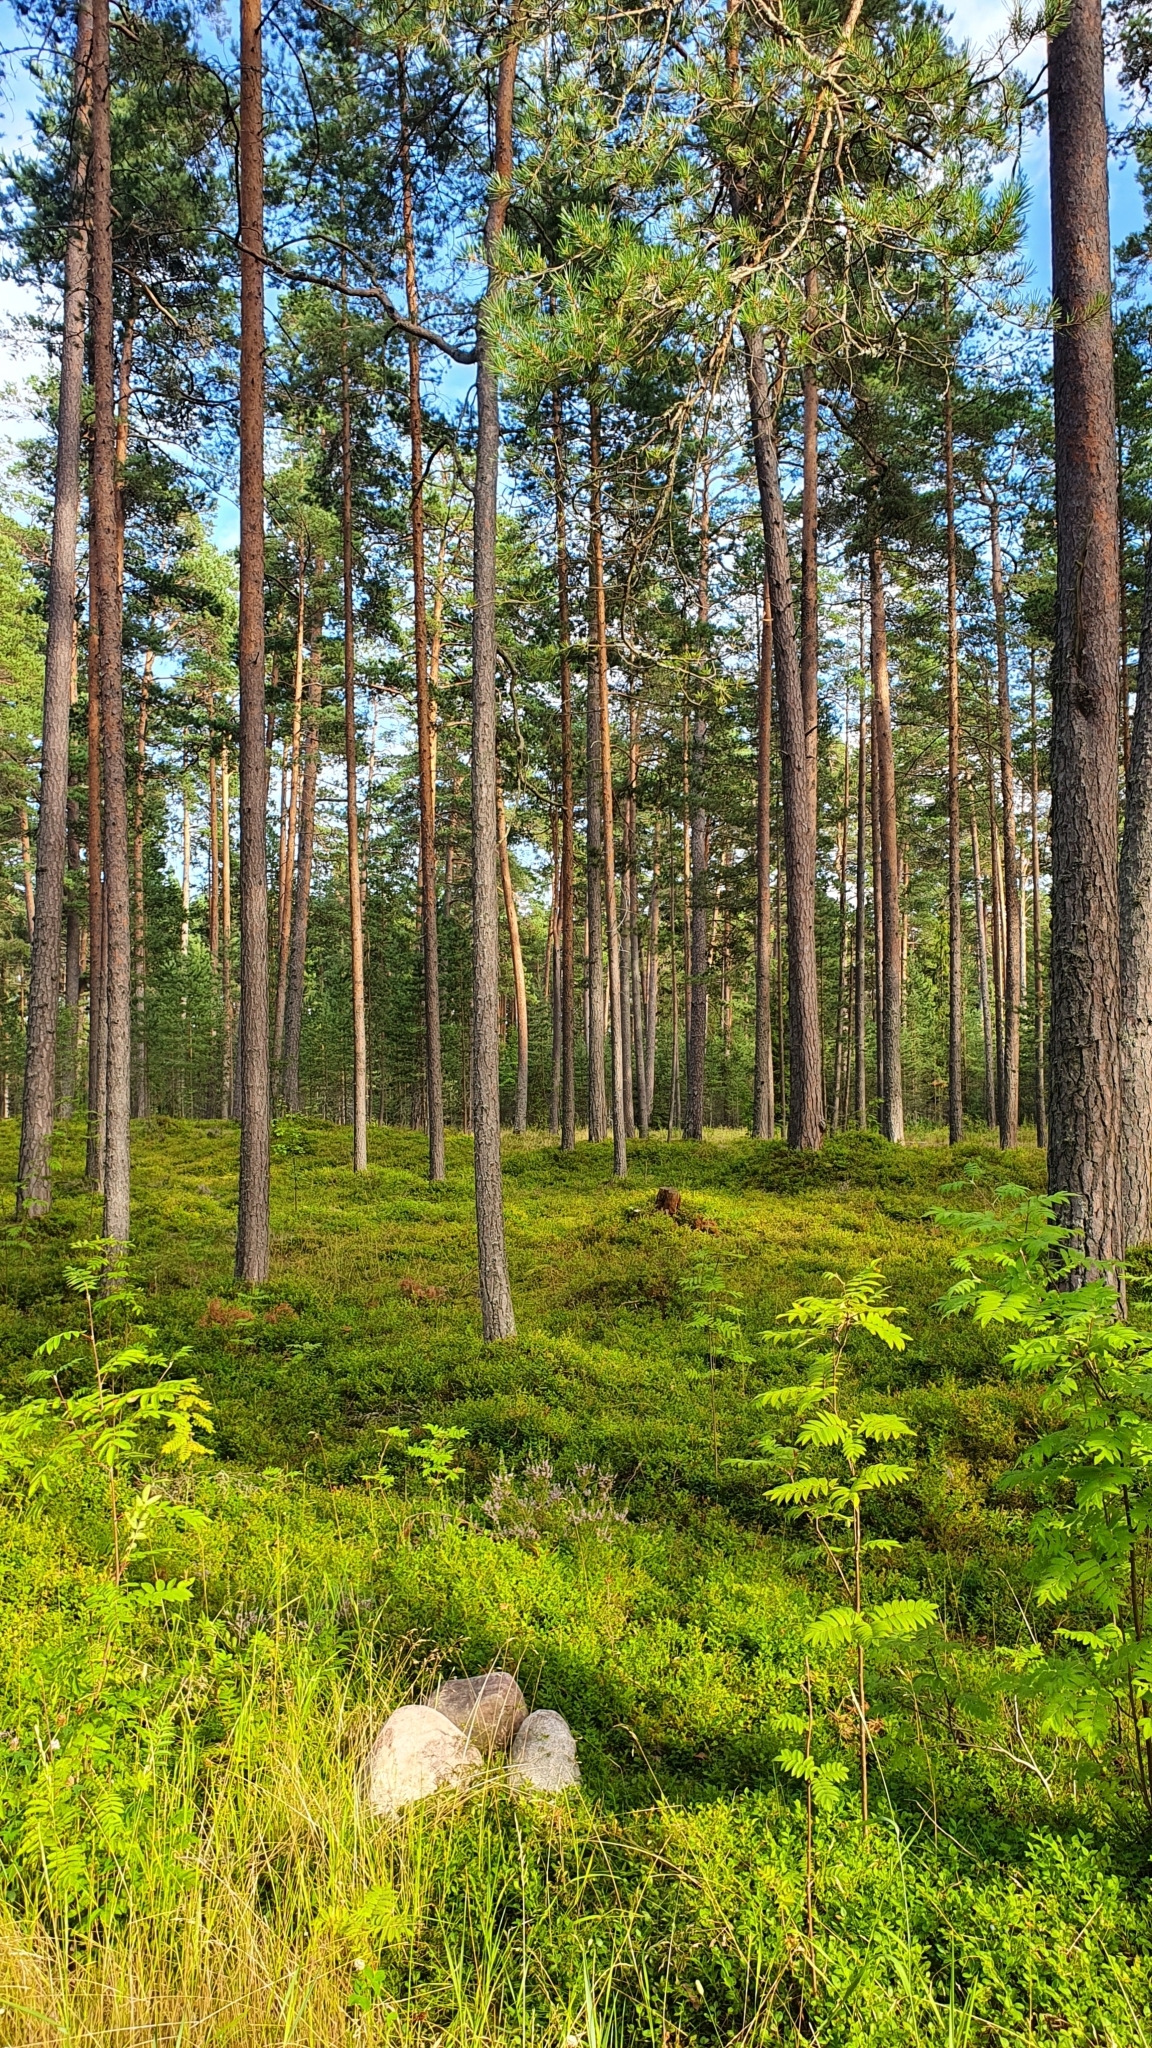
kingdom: Plantae
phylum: Tracheophyta
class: Pinopsida
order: Pinales
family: Pinaceae
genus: Pinus
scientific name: Pinus sylvestris
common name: Scots pine
